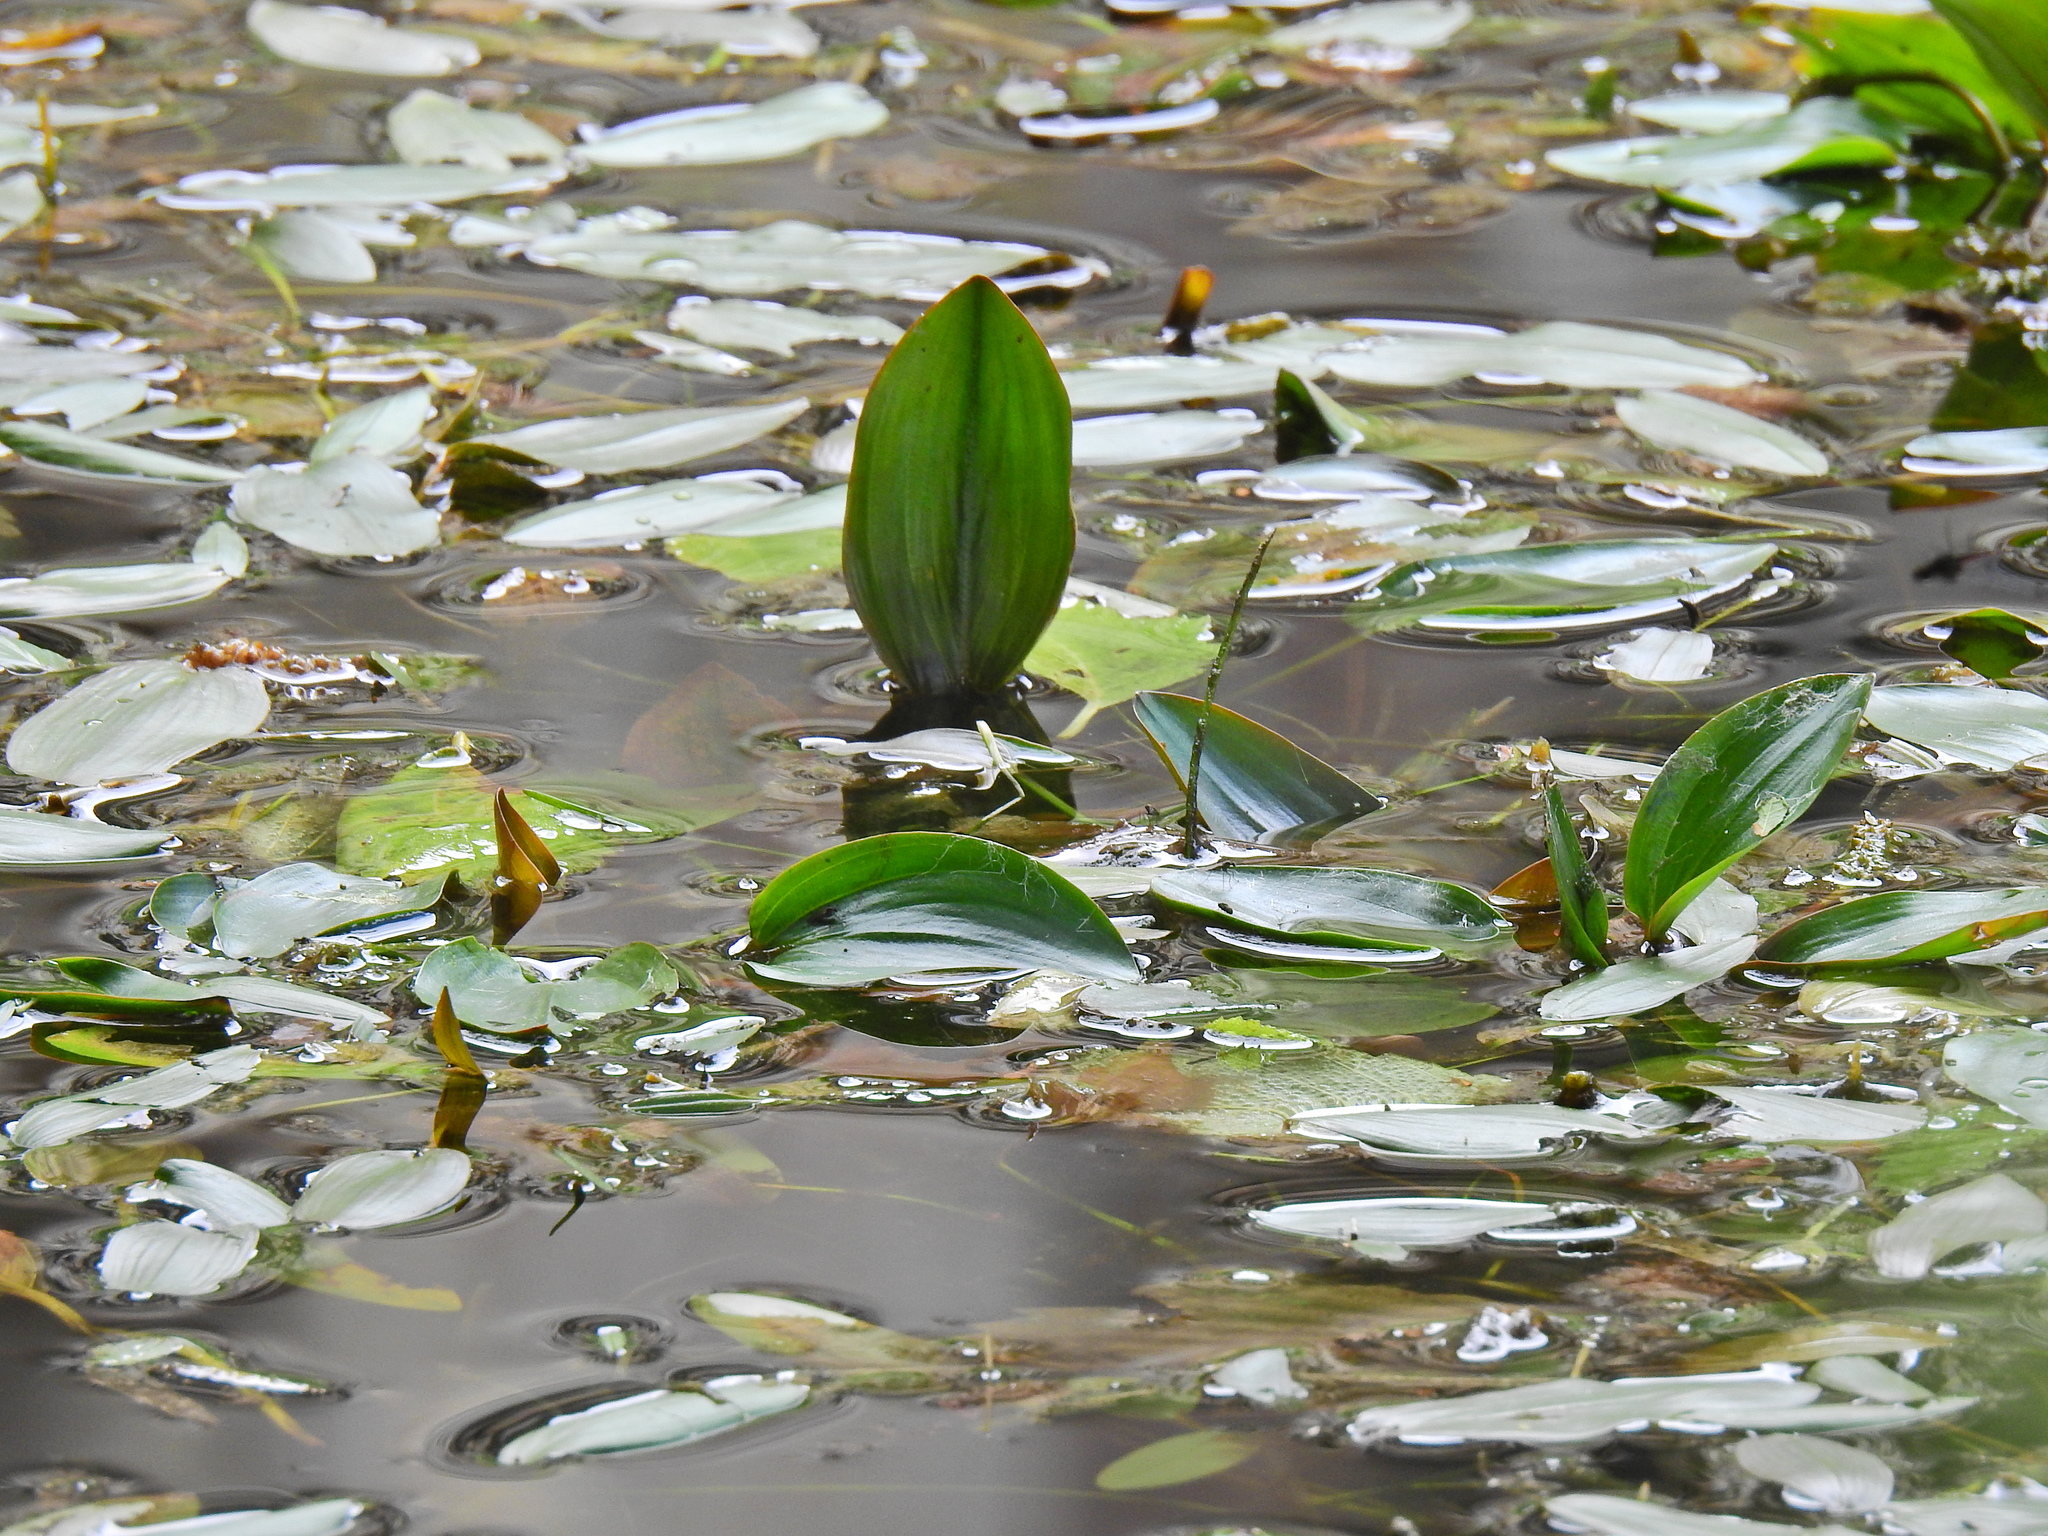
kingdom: Plantae
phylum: Tracheophyta
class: Liliopsida
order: Alismatales
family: Potamogetonaceae
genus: Potamogeton
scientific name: Potamogeton natans
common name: Broad-leaved pondweed
